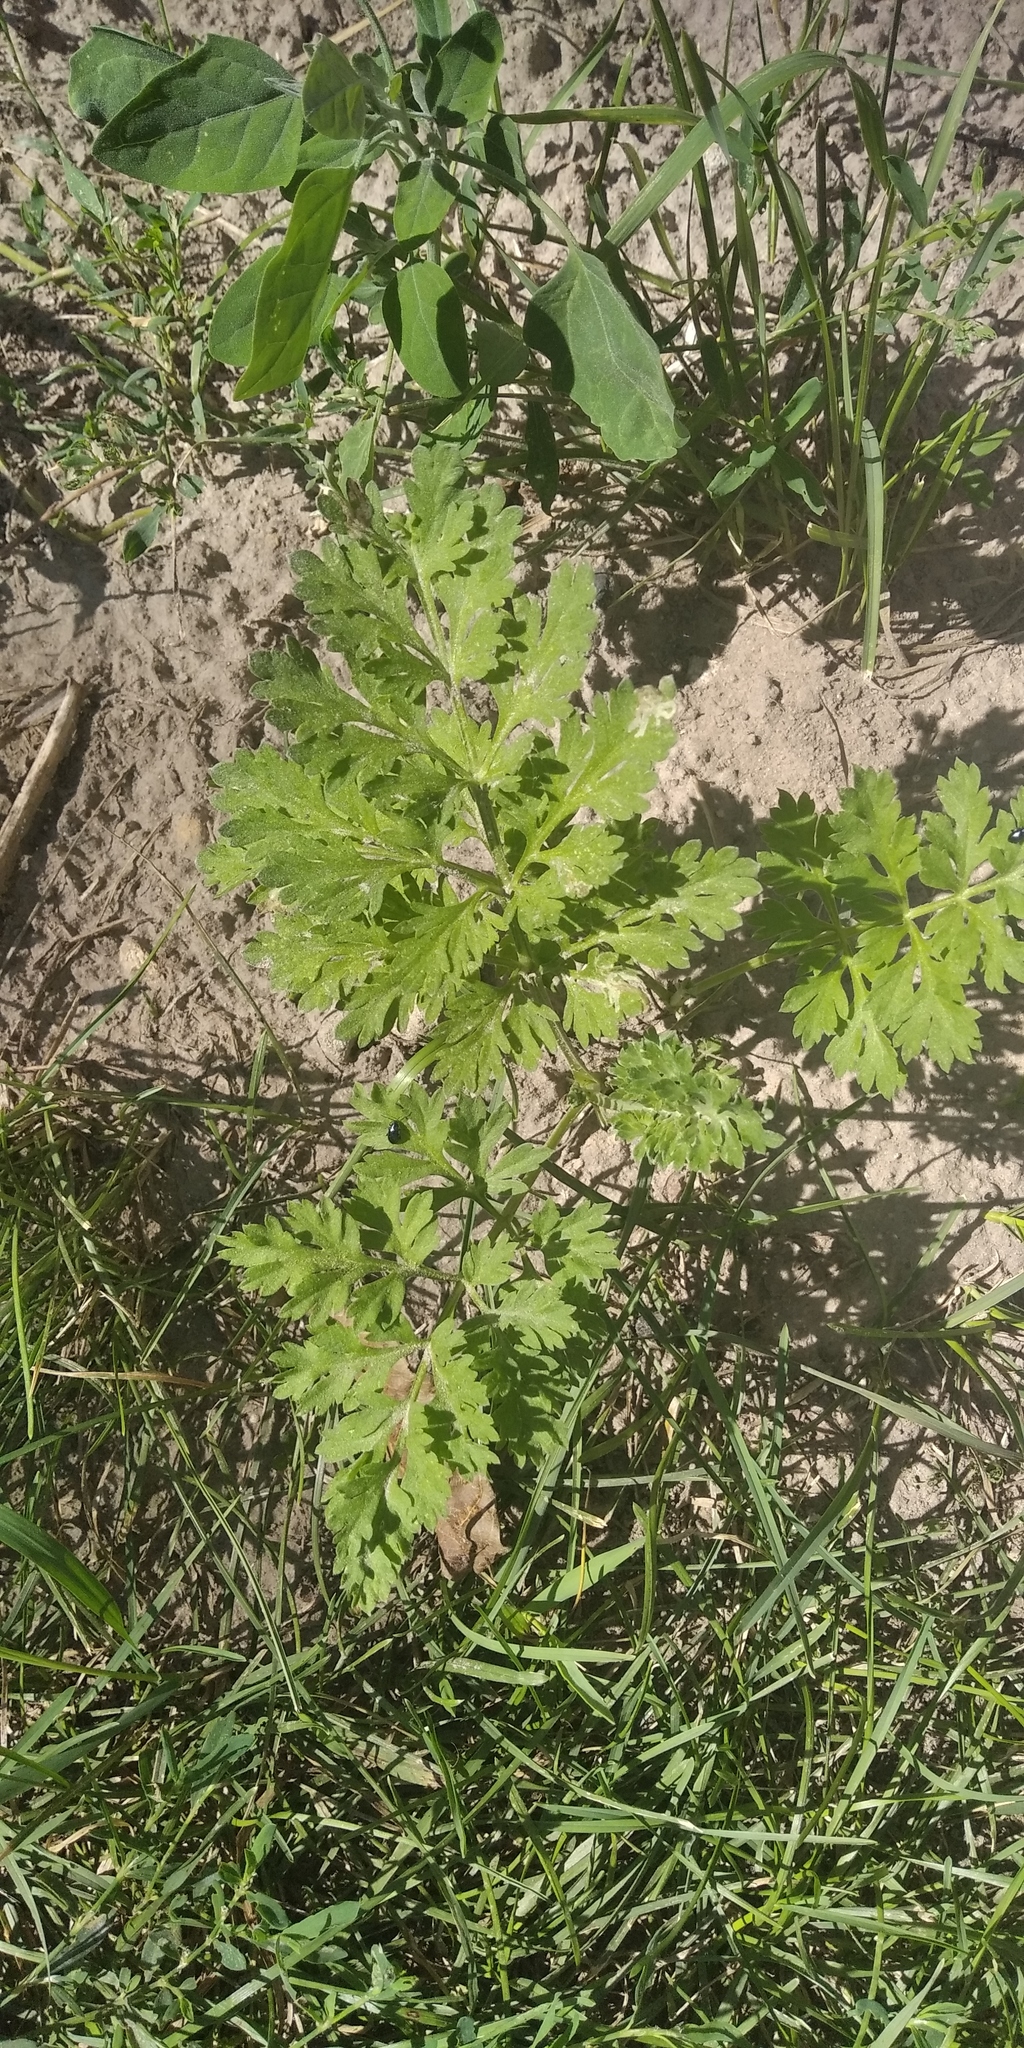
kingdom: Plantae
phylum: Tracheophyta
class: Magnoliopsida
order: Asterales
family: Asteraceae
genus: Artemisia
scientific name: Artemisia vulgaris
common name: Mugwort
